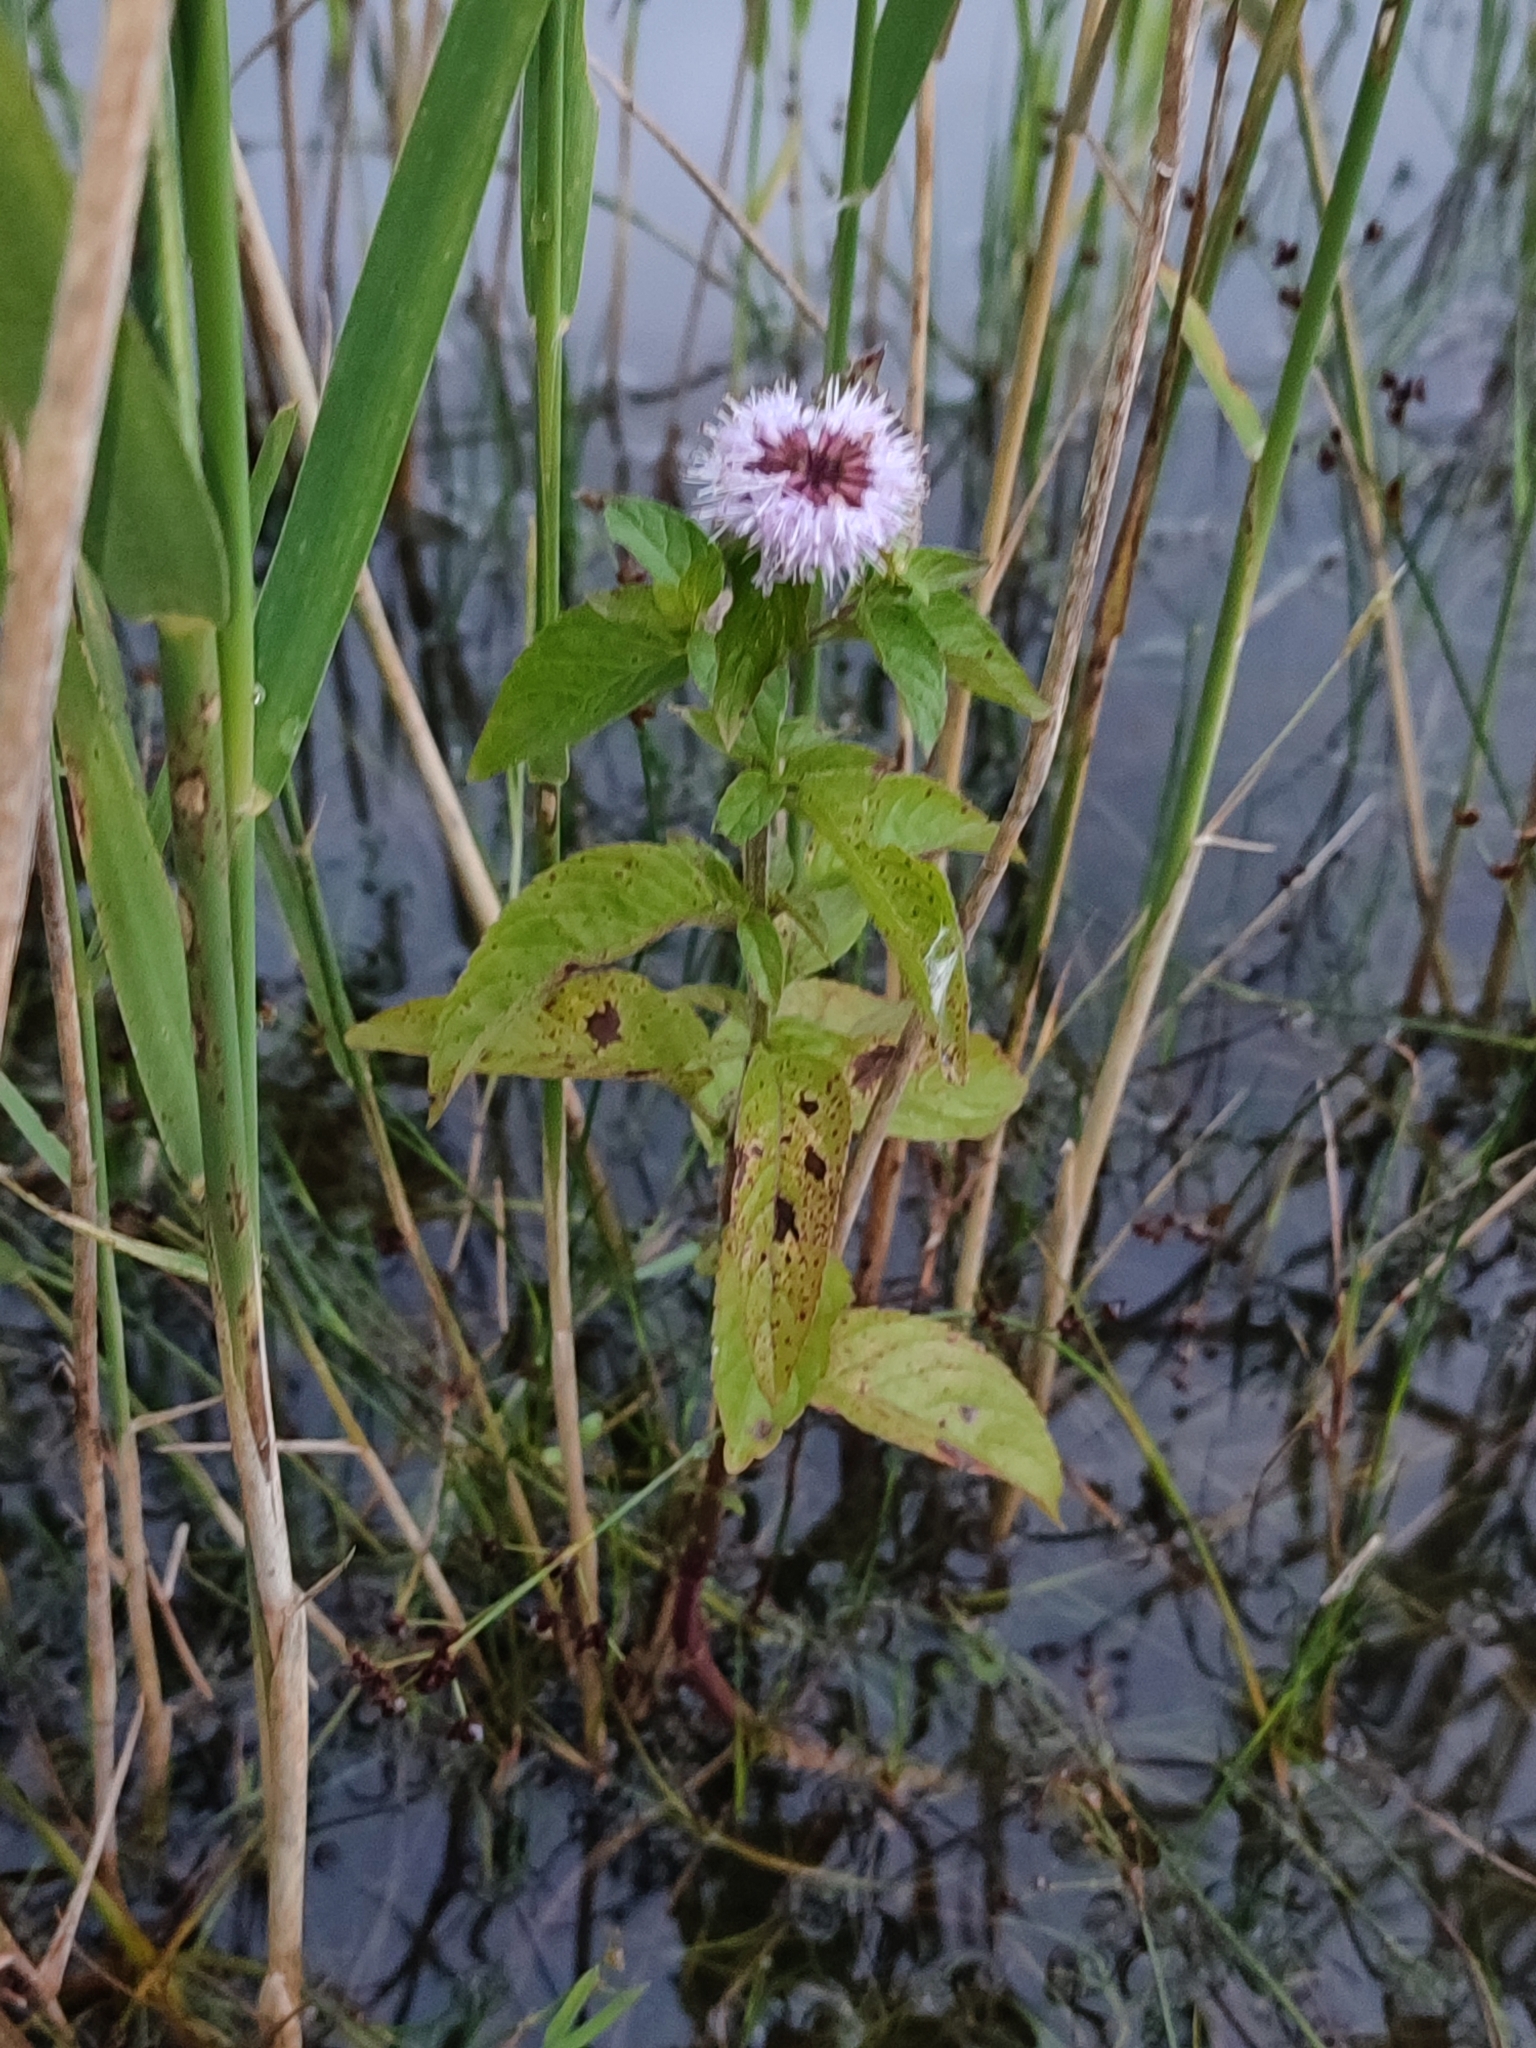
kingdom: Plantae
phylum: Tracheophyta
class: Magnoliopsida
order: Lamiales
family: Lamiaceae
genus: Mentha
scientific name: Mentha aquatica
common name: Water mint
